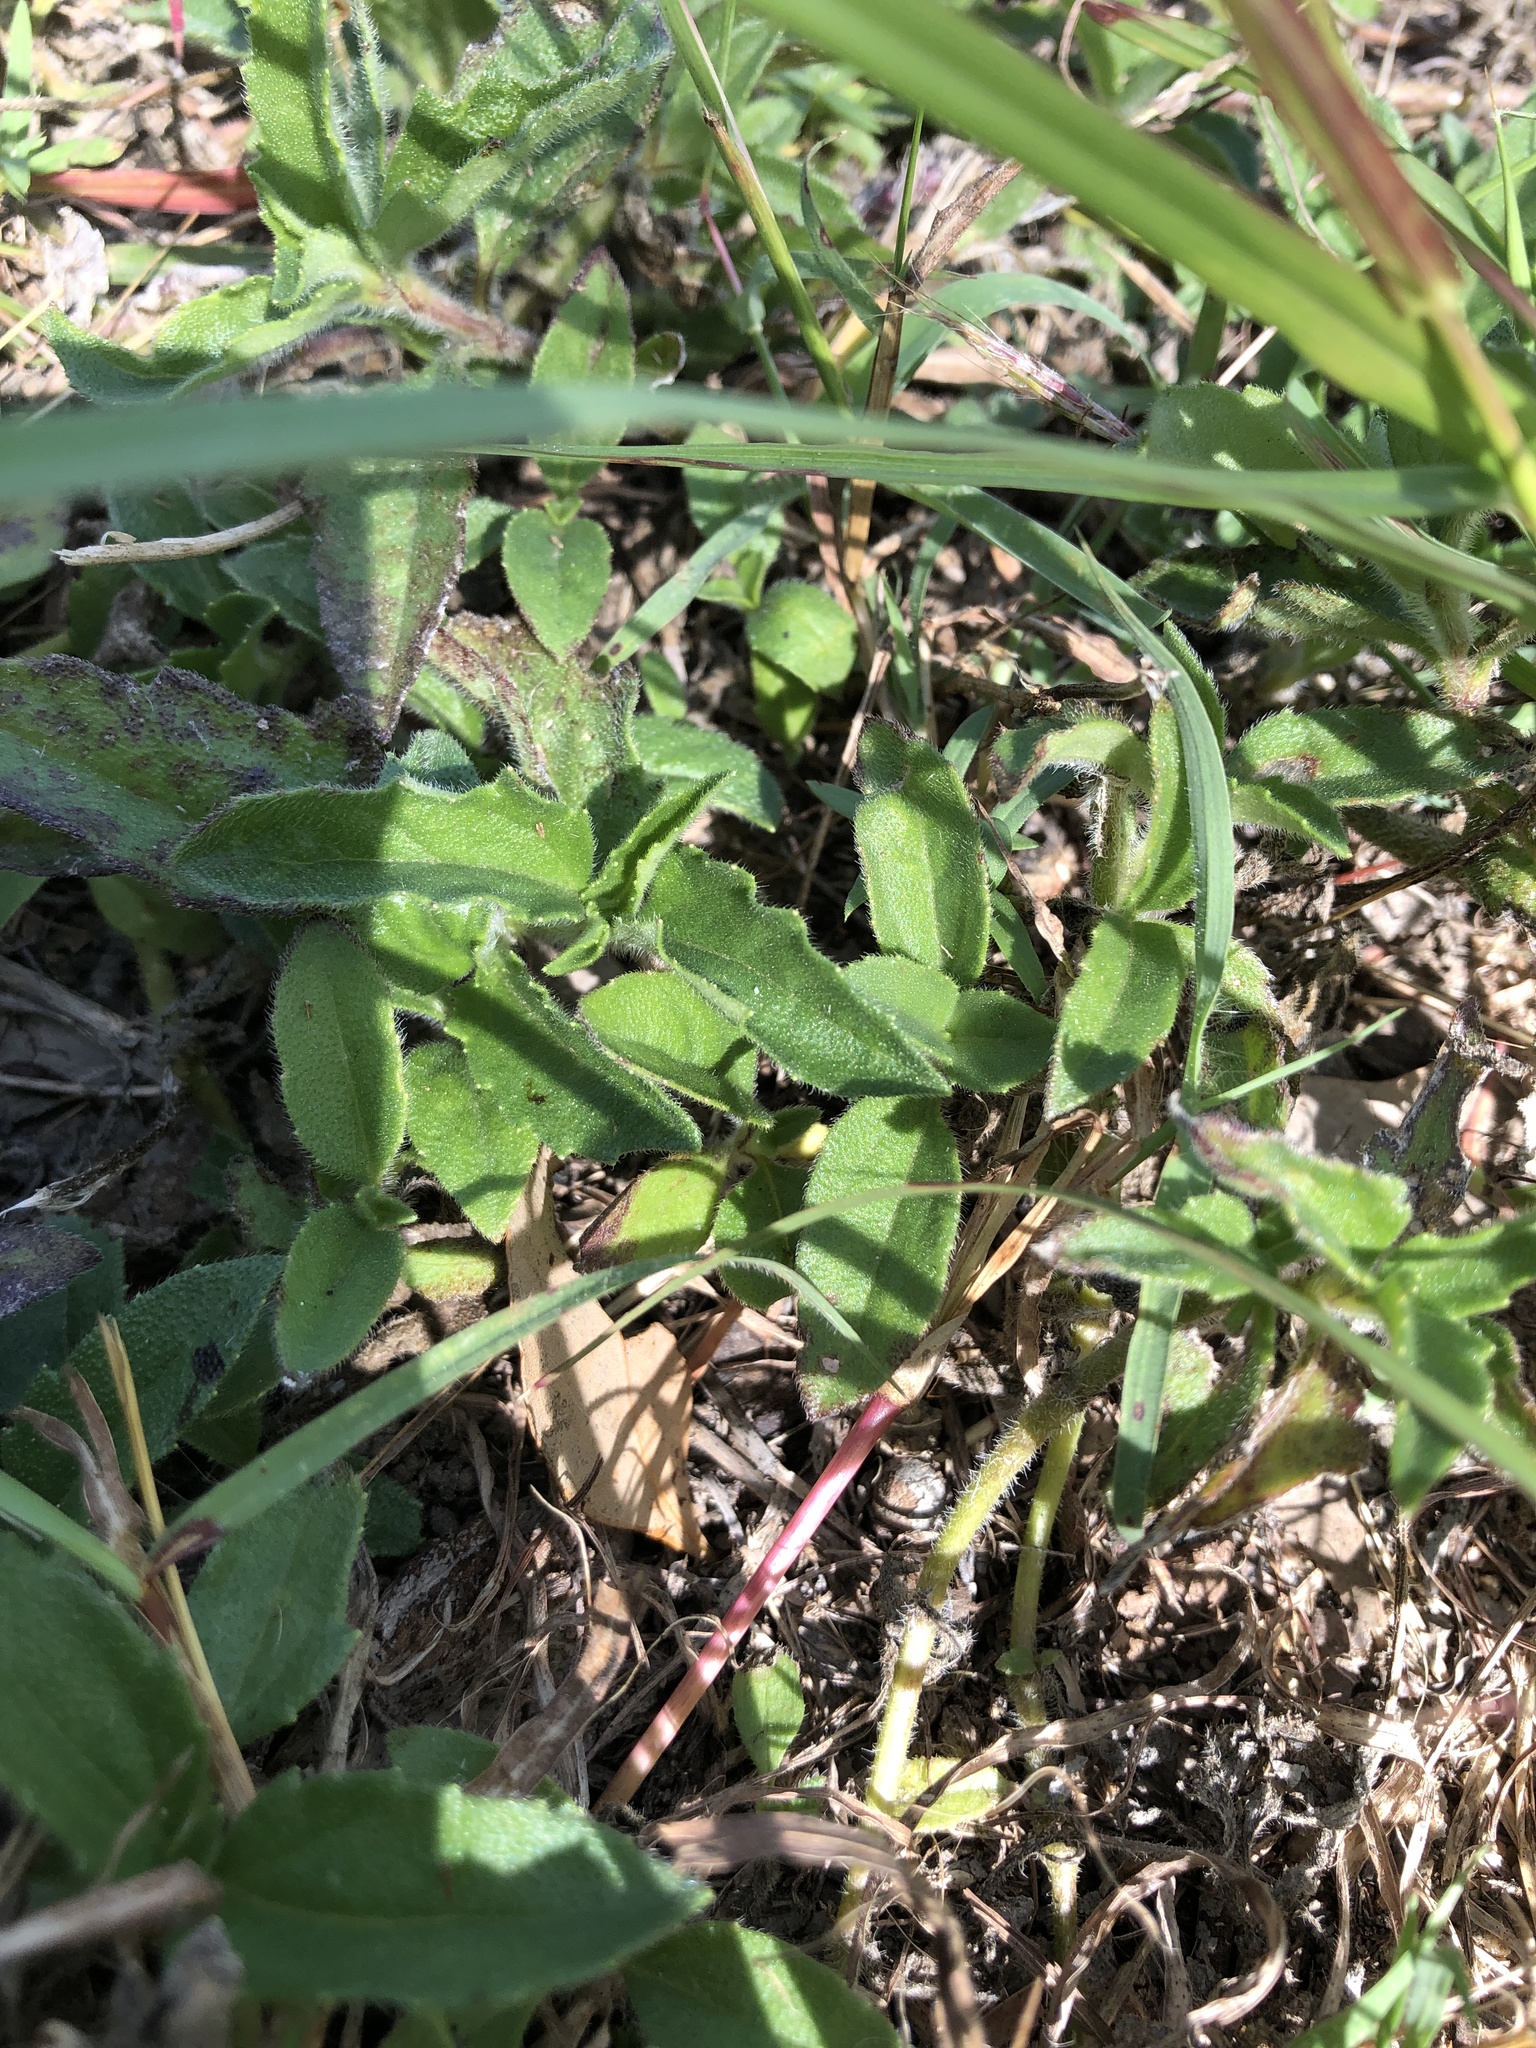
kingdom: Plantae
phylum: Tracheophyta
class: Magnoliopsida
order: Asterales
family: Asteraceae
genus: Tridax
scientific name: Tridax procumbens
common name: Coatbuttons
